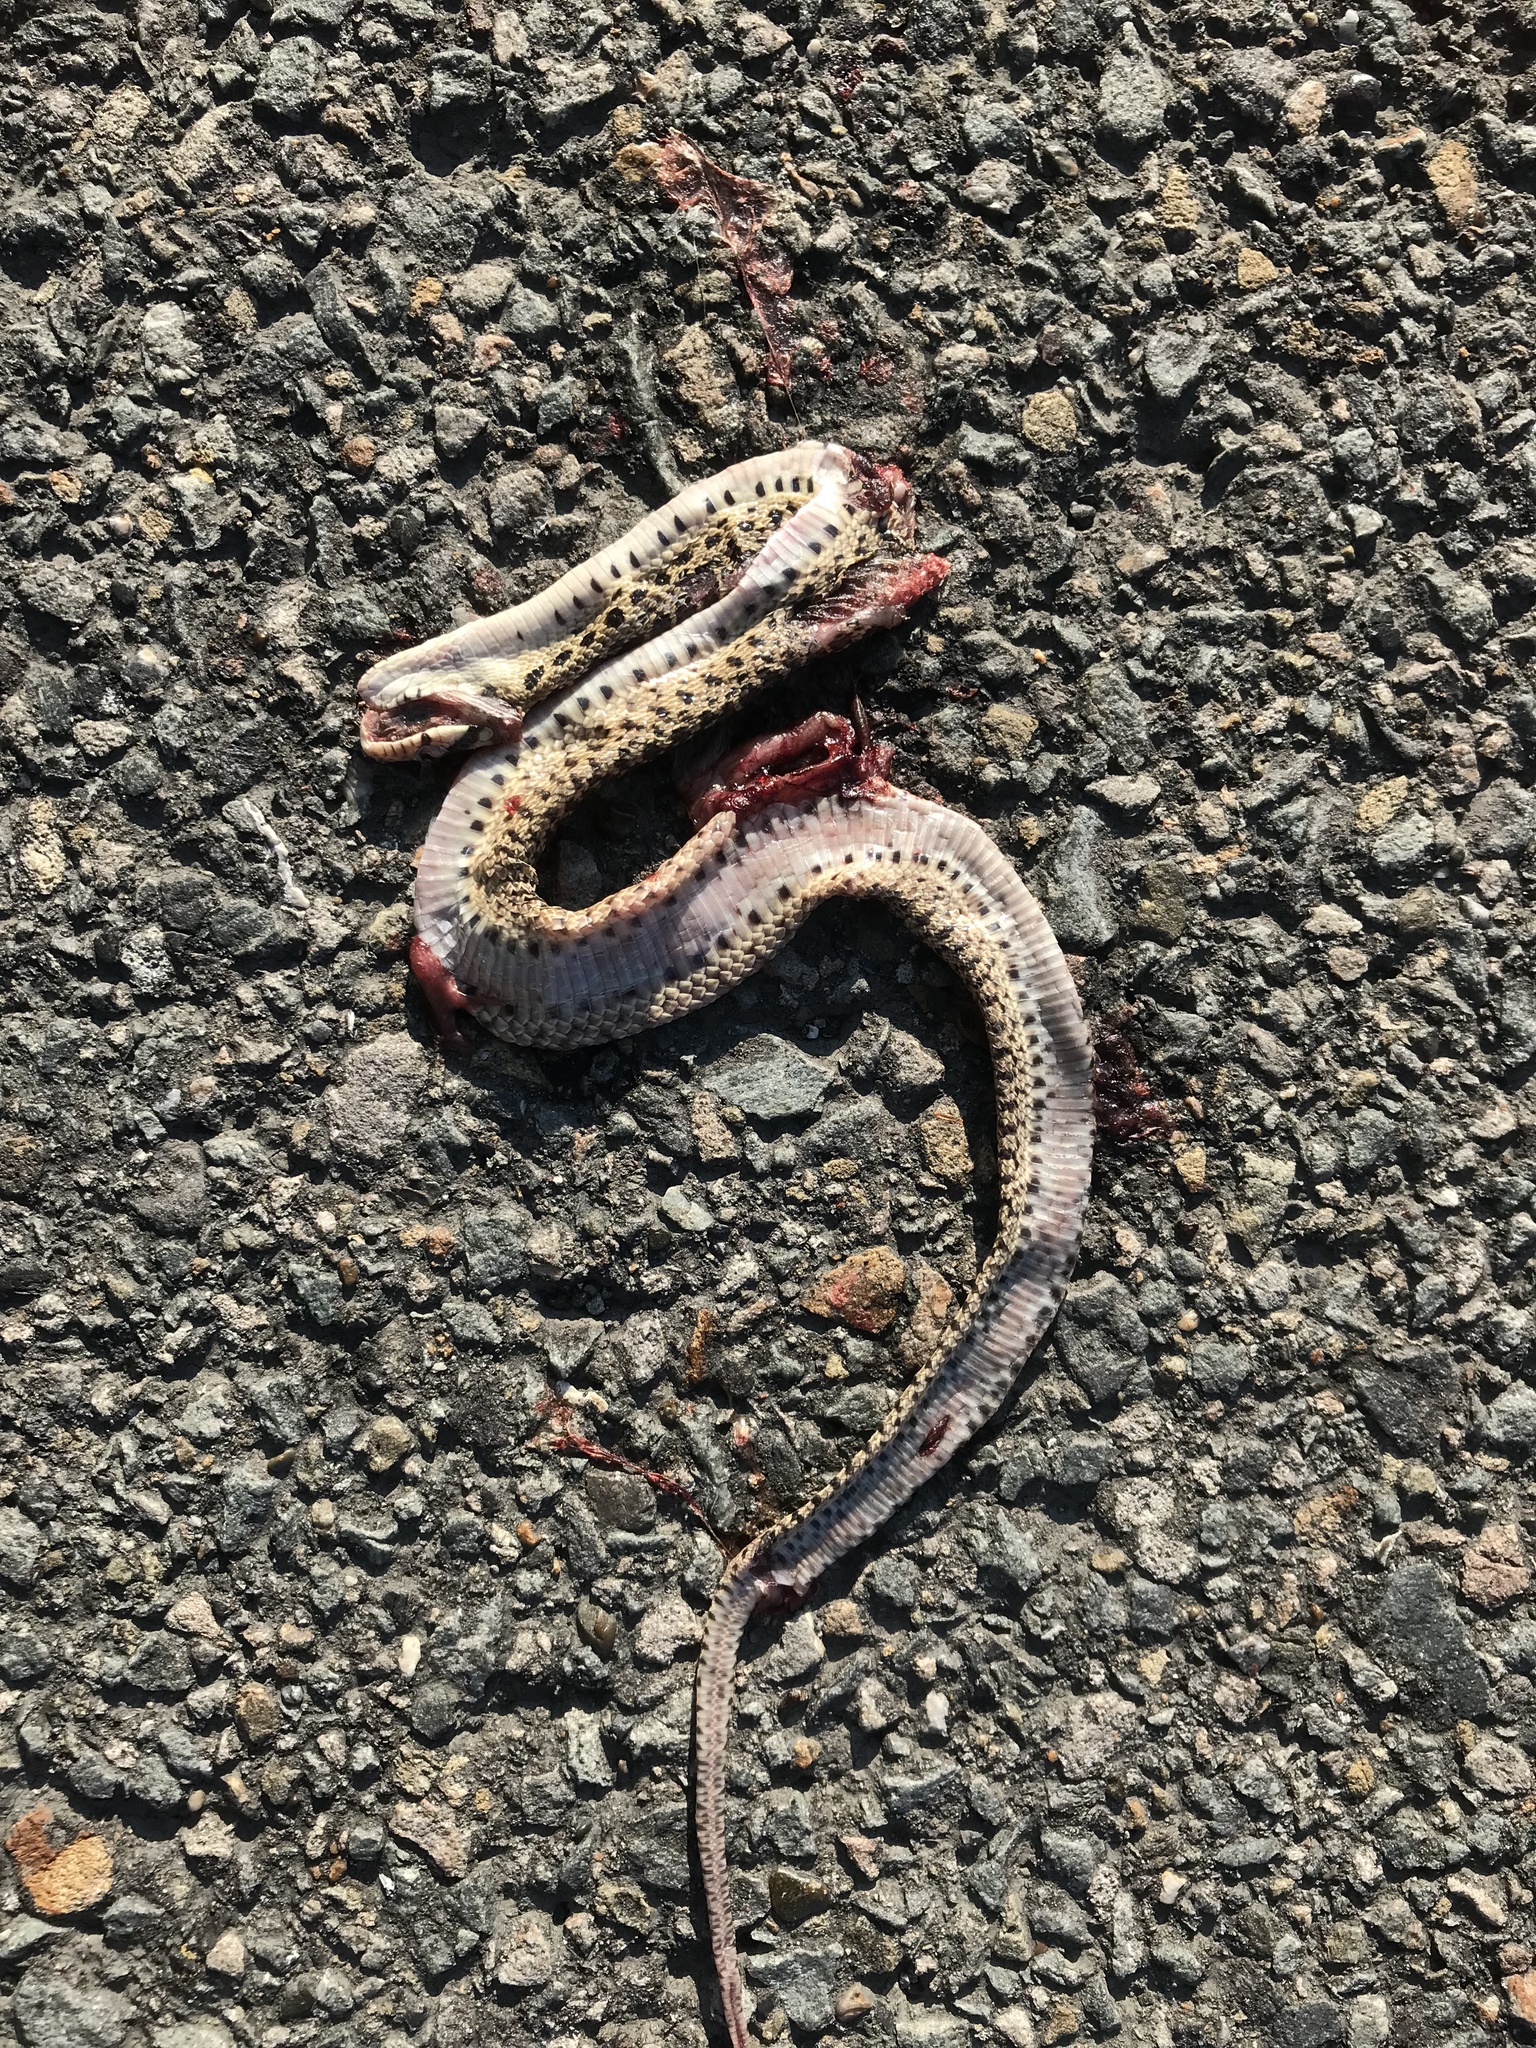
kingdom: Animalia
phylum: Chordata
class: Squamata
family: Colubridae
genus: Pituophis
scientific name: Pituophis catenifer
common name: Gopher snake
